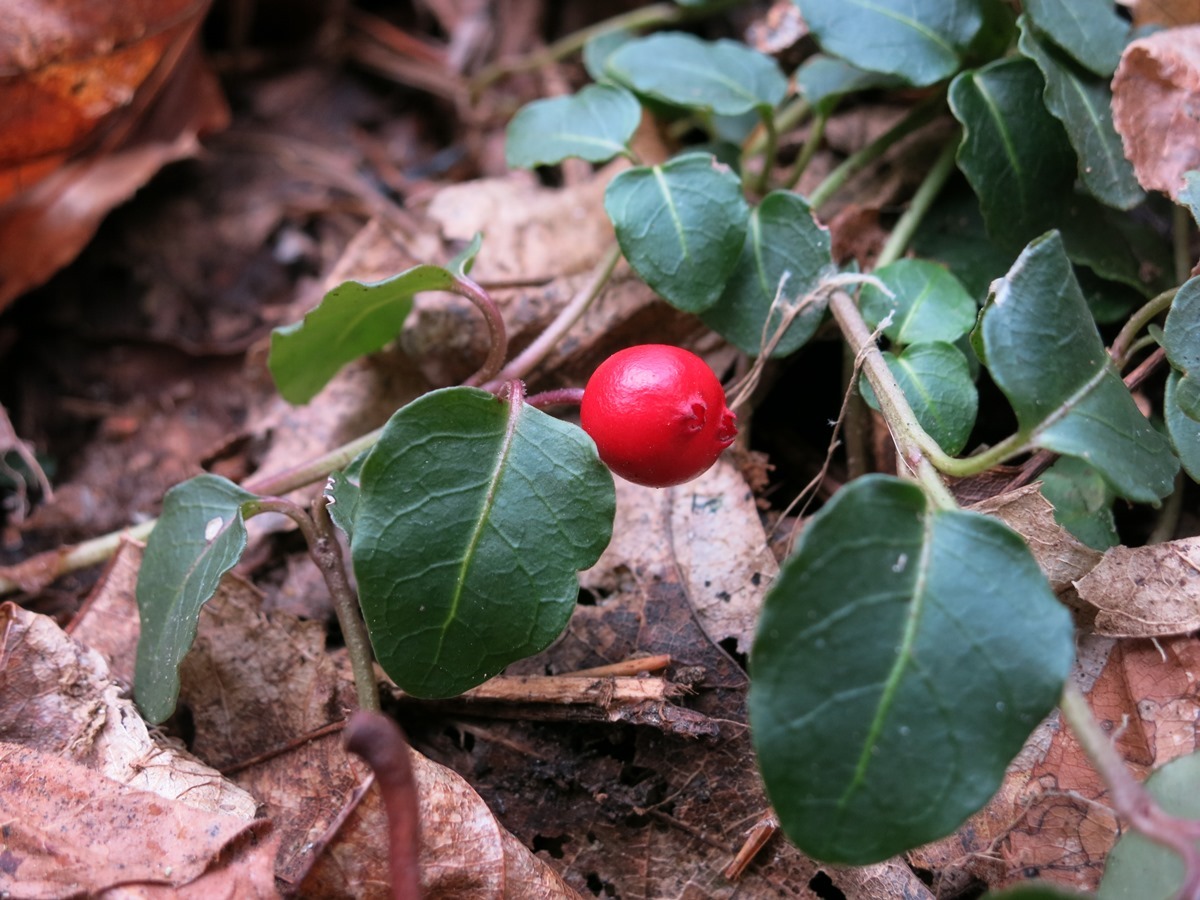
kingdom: Plantae
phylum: Tracheophyta
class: Magnoliopsida
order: Gentianales
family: Rubiaceae
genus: Mitchella
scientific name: Mitchella repens
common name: Partridge-berry
